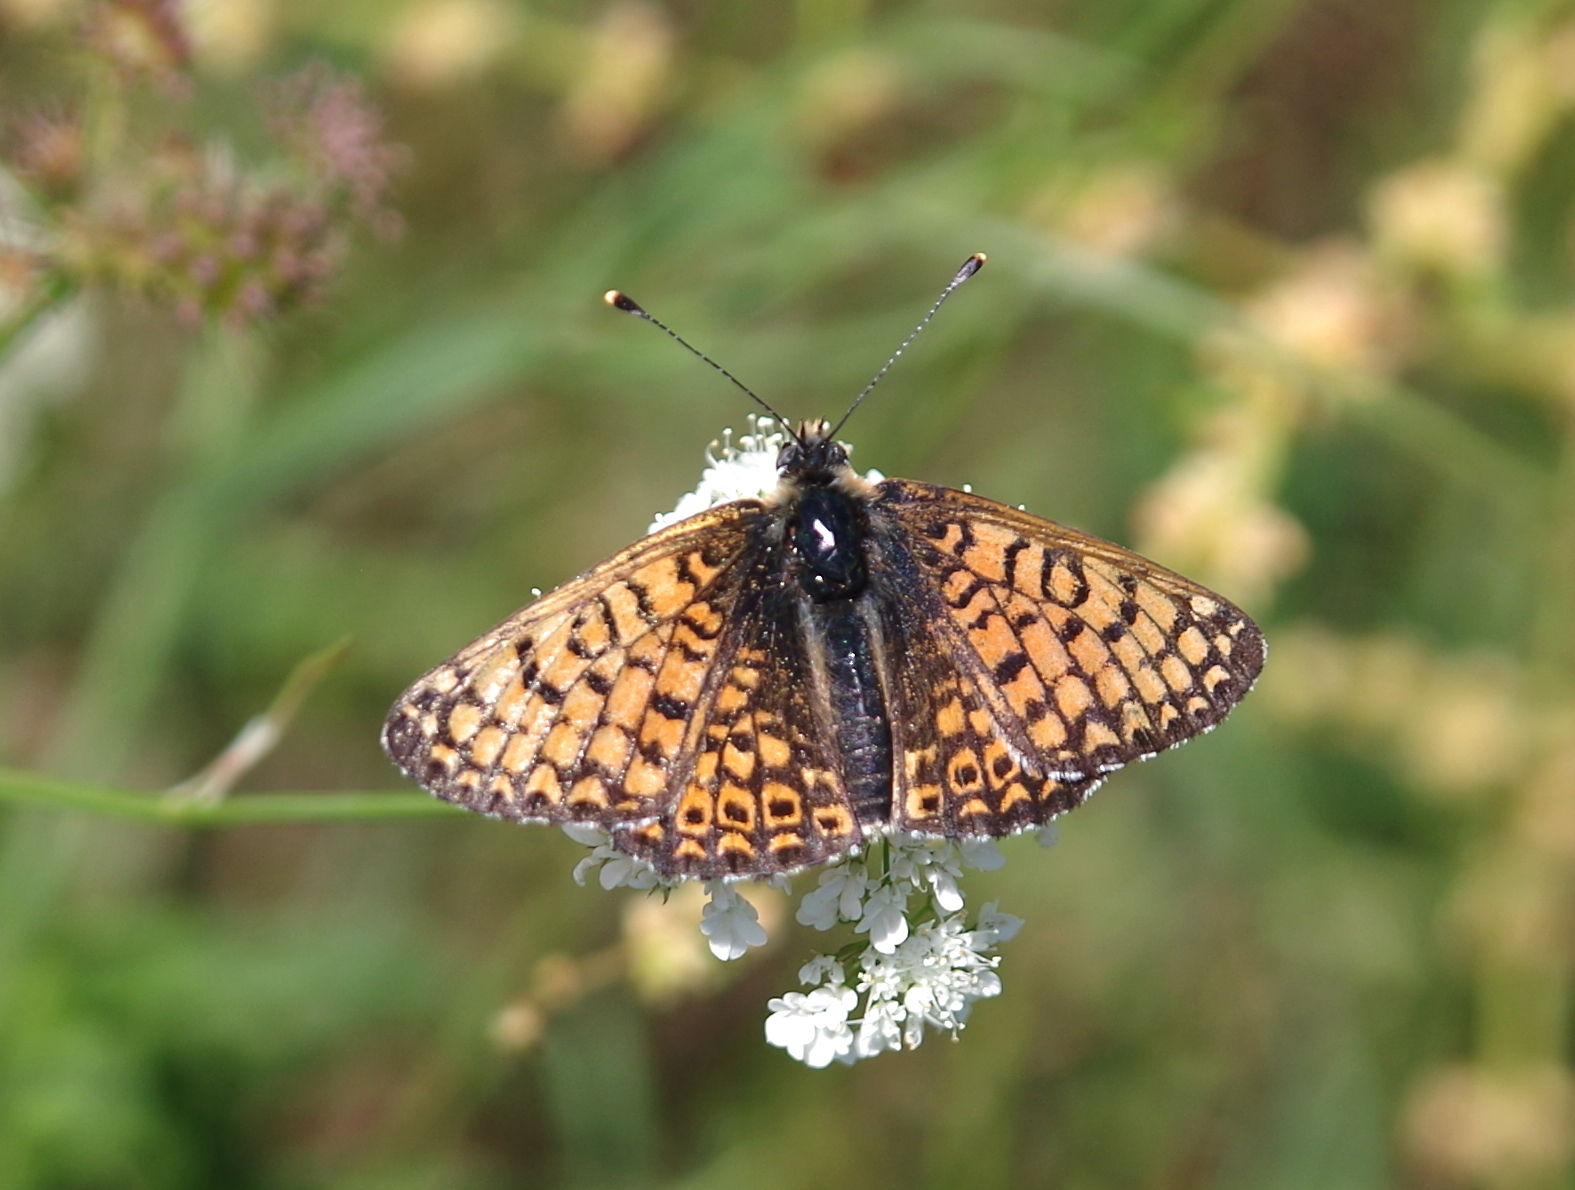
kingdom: Animalia
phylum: Arthropoda
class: Insecta
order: Lepidoptera
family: Nymphalidae
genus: Melitaea
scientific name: Melitaea cinxia
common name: Glanville fritillary
